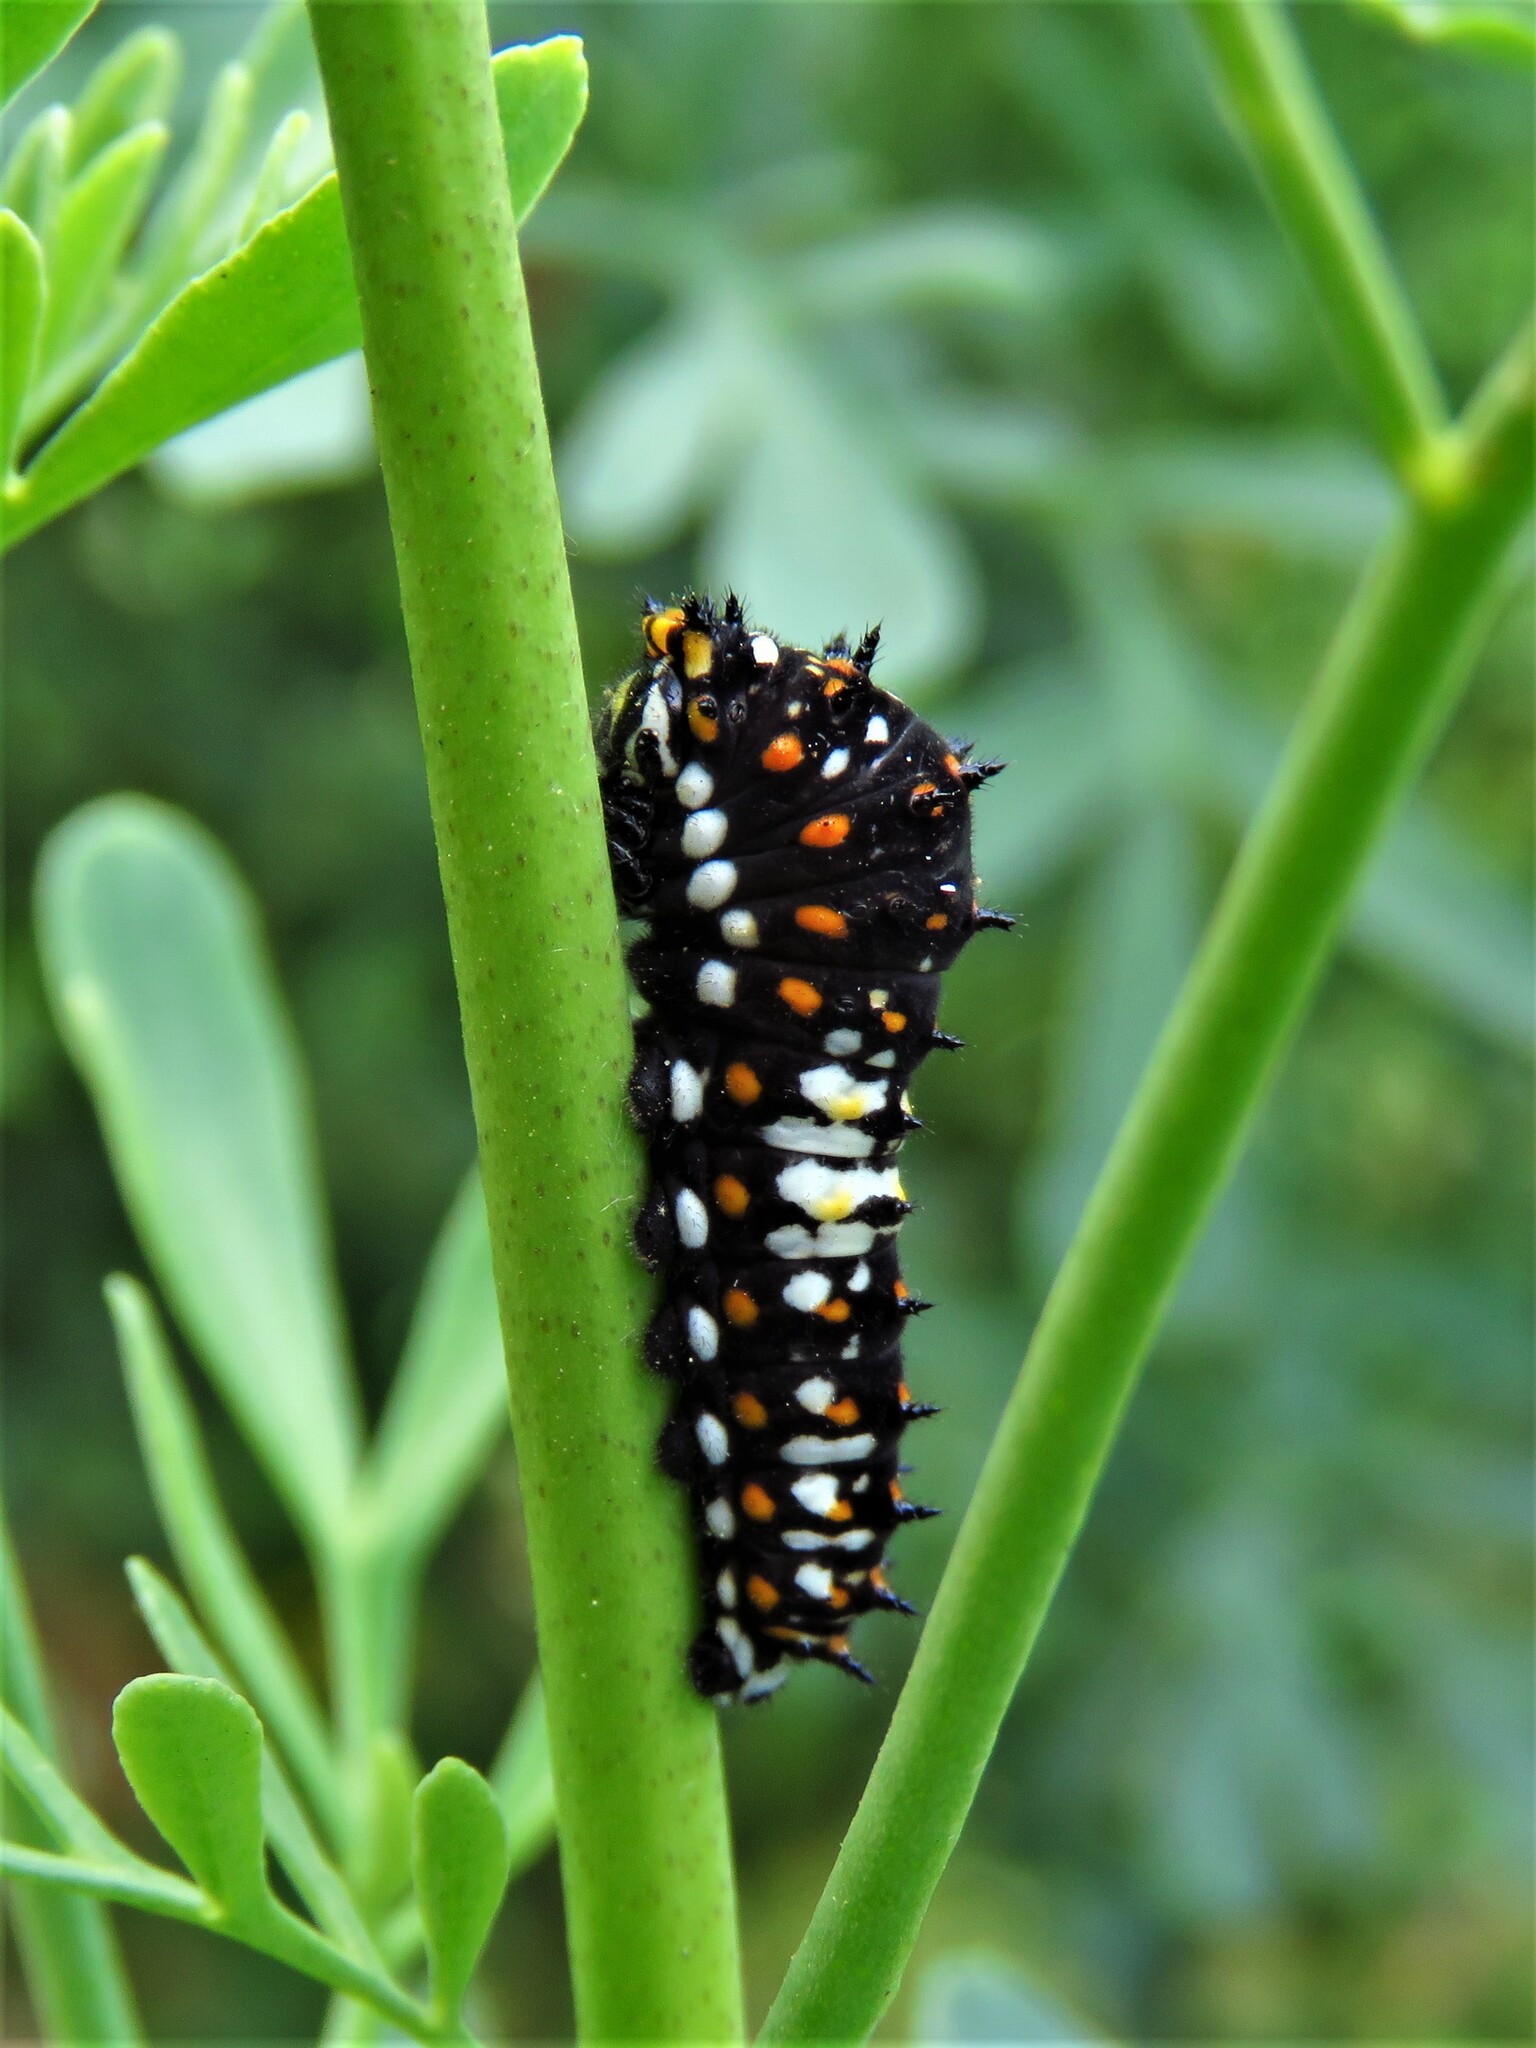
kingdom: Animalia
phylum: Arthropoda
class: Insecta
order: Lepidoptera
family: Papilionidae
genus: Papilio
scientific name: Papilio polyxenes
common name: Black swallowtail
